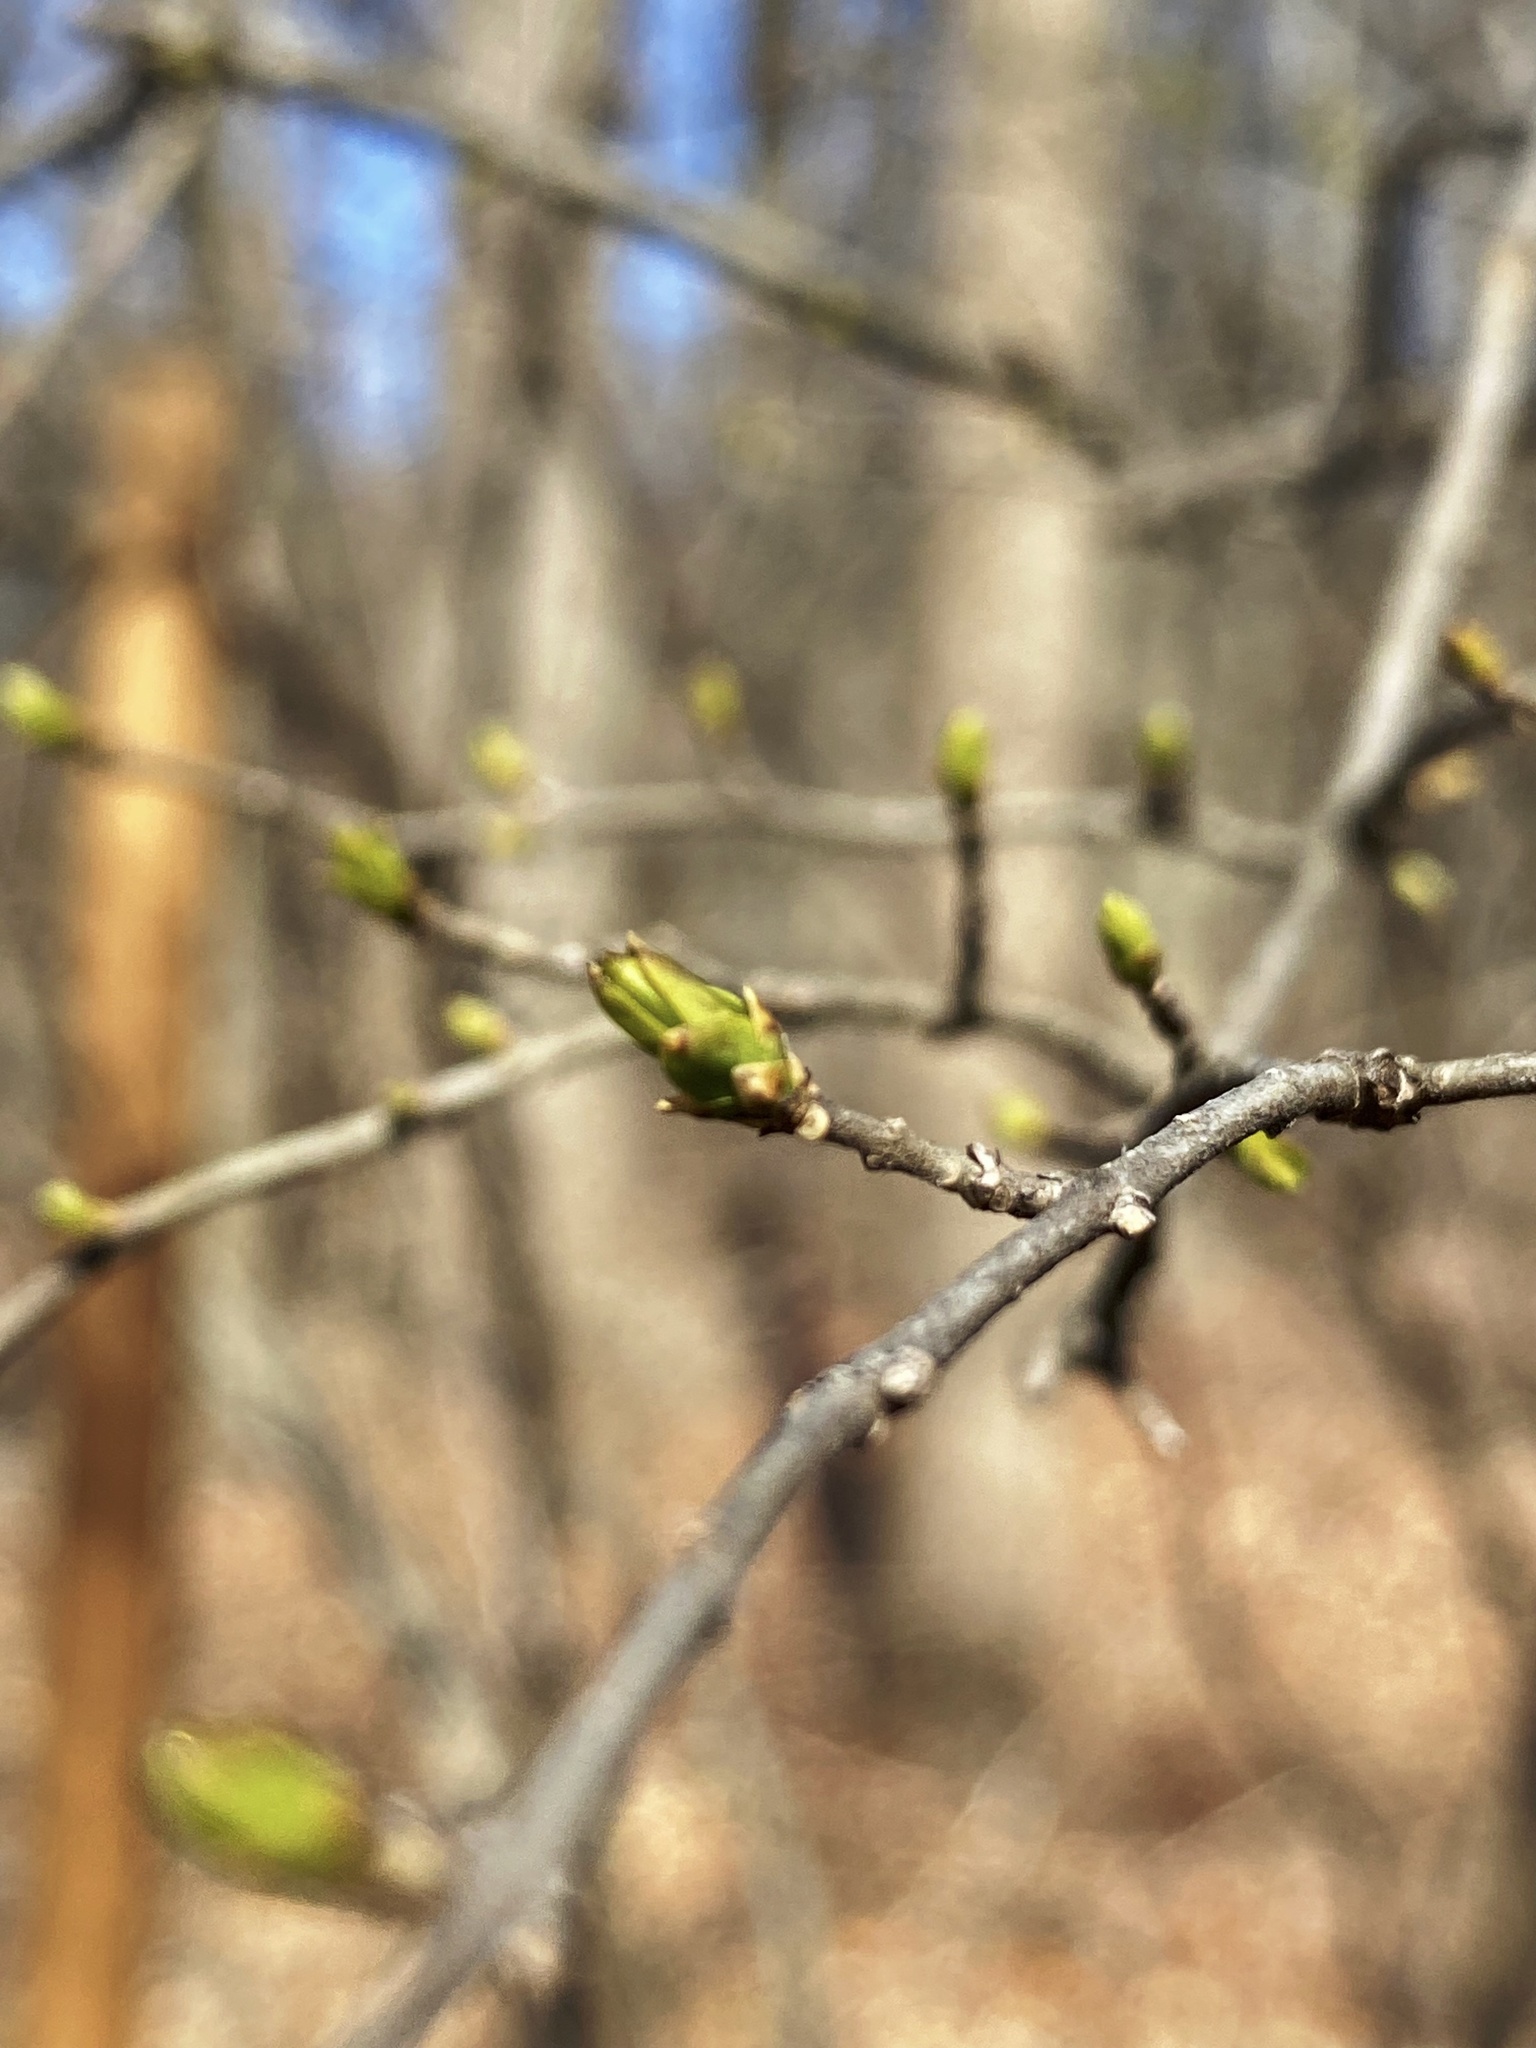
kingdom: Plantae
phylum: Tracheophyta
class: Magnoliopsida
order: Lamiales
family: Oleaceae
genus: Ligustrum
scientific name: Ligustrum obtusifolium
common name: Border privet
